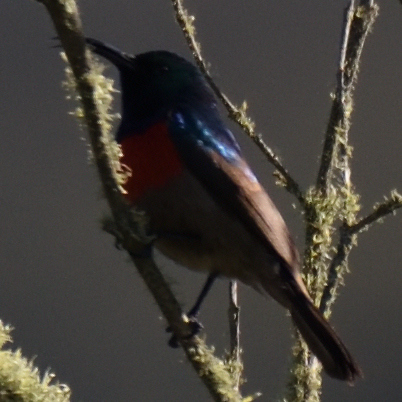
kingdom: Animalia
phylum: Chordata
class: Aves
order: Passeriformes
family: Nectariniidae
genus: Cinnyris
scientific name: Cinnyris afer
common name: Greater double-collared sunbird
